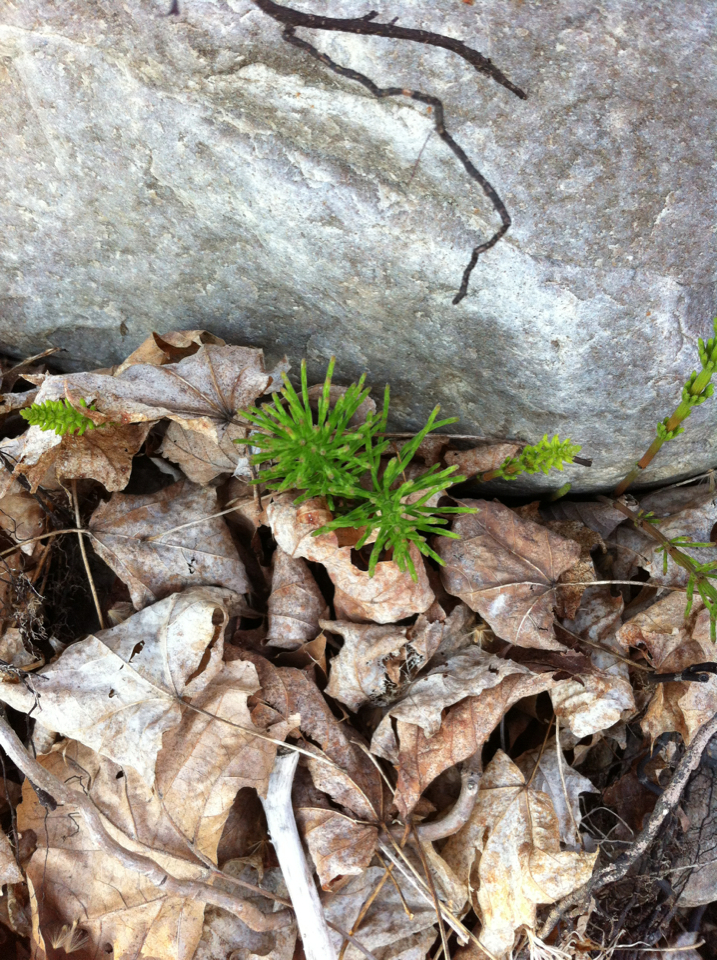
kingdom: Plantae
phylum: Tracheophyta
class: Polypodiopsida
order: Equisetales
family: Equisetaceae
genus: Equisetum
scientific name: Equisetum
